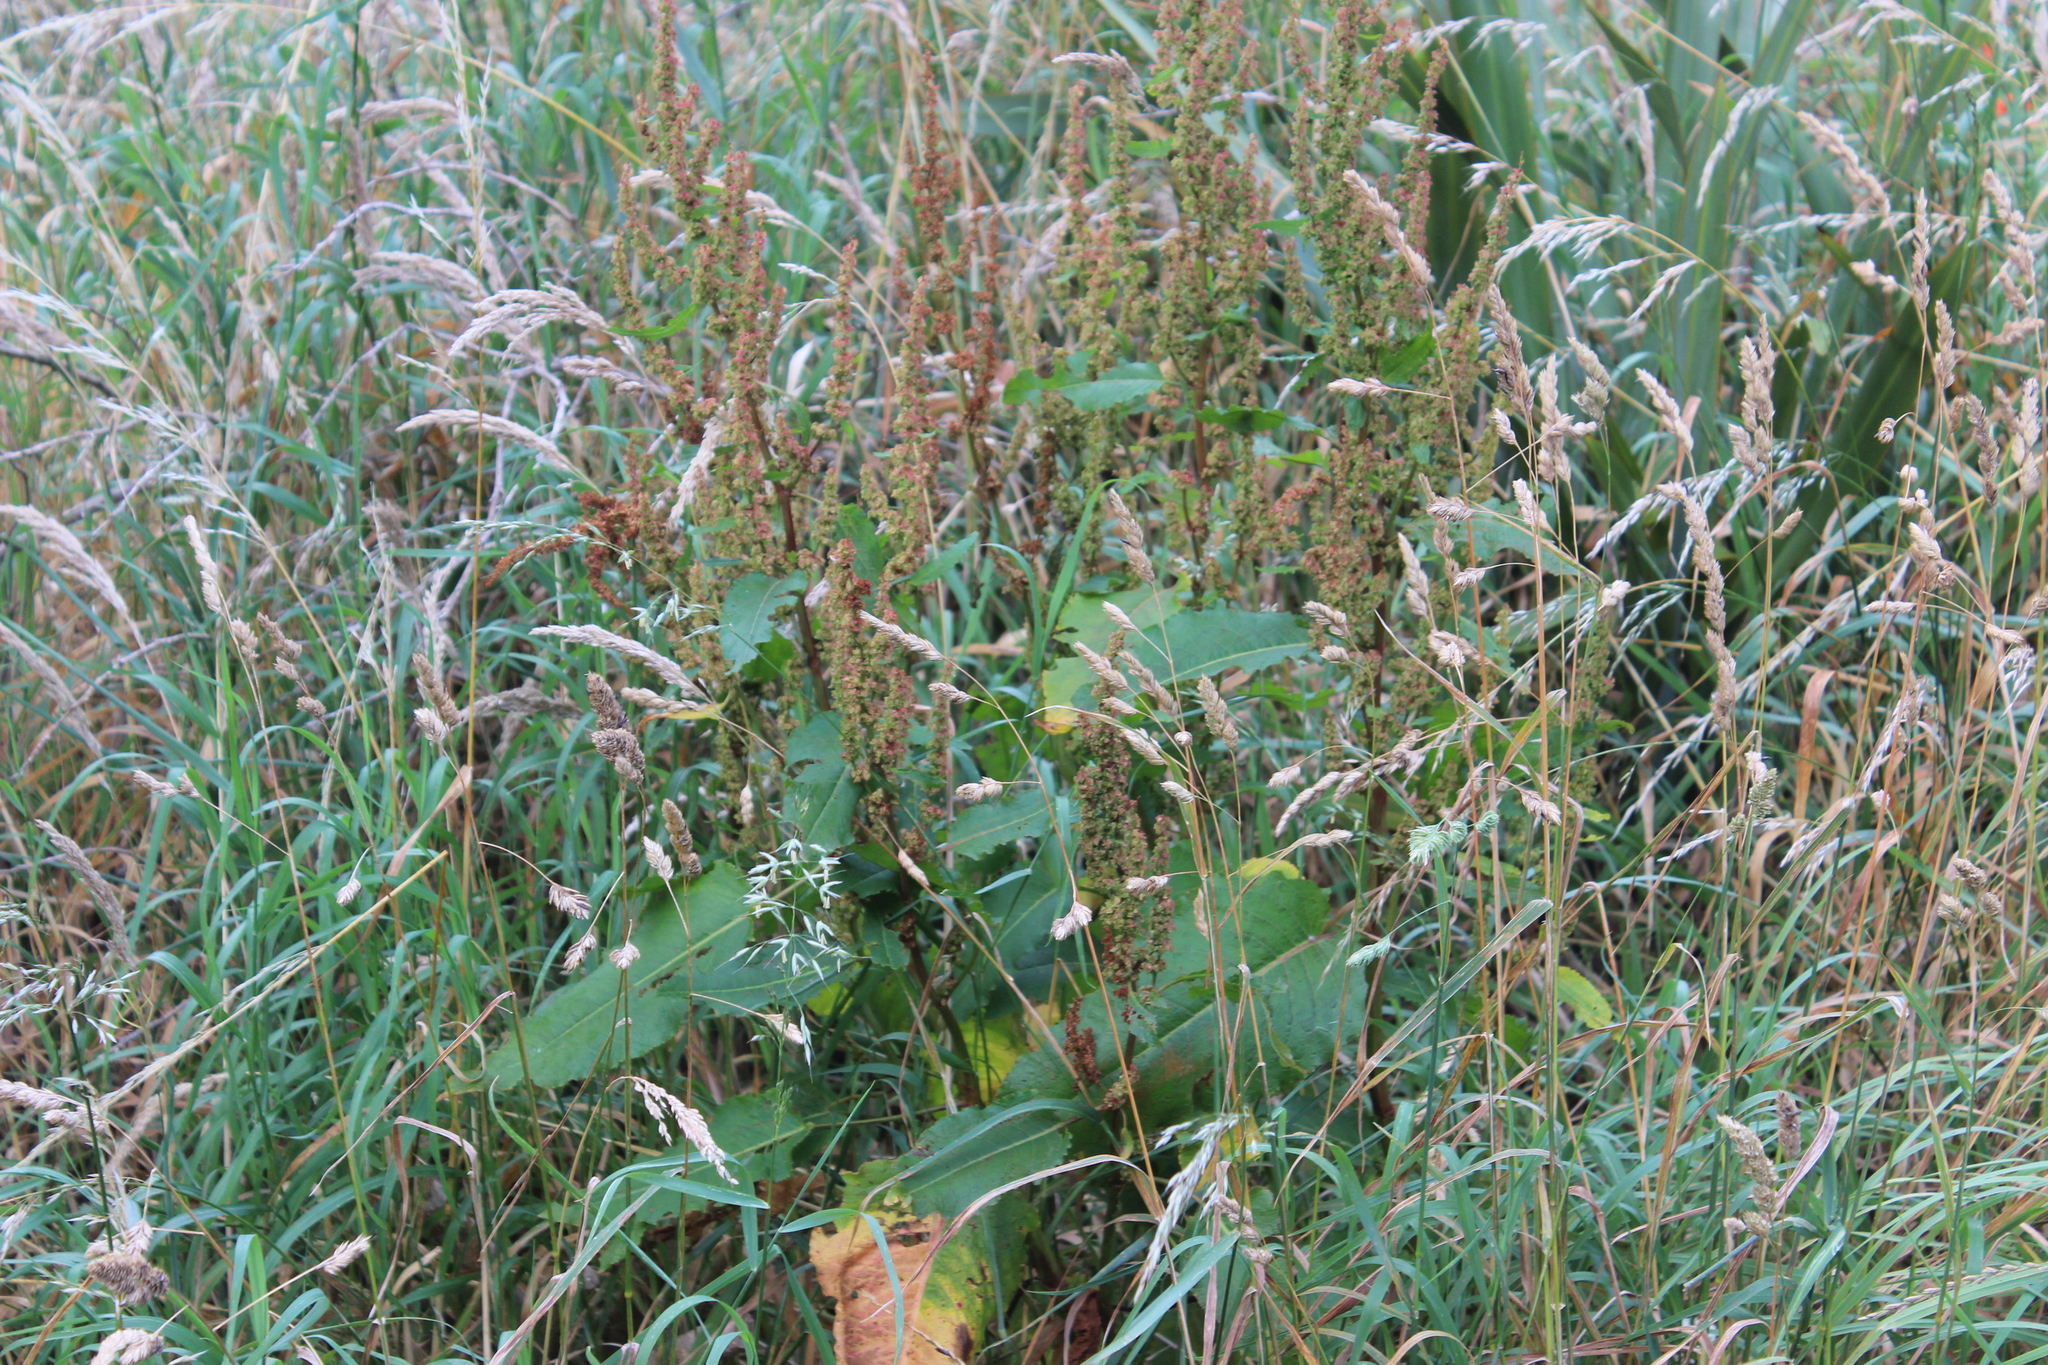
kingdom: Plantae
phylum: Tracheophyta
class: Magnoliopsida
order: Caryophyllales
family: Polygonaceae
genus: Rumex
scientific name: Rumex obtusifolius
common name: Bitter dock
